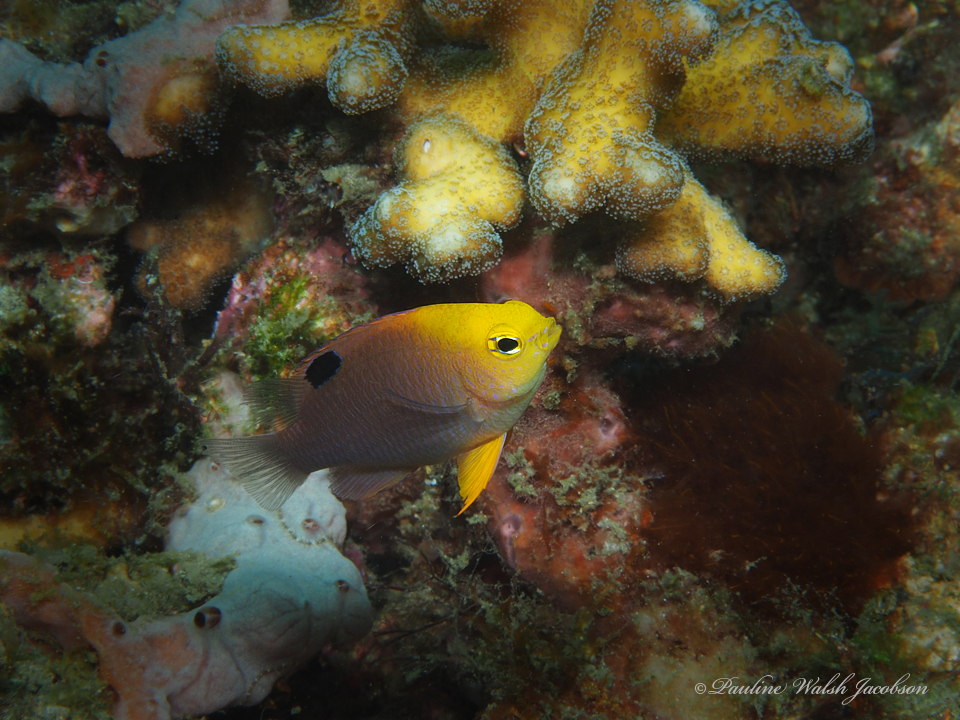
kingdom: Animalia
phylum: Chordata
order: Perciformes
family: Pomacentridae
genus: Chrysiptera
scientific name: Chrysiptera talboti
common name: Talbot's demoiselle
